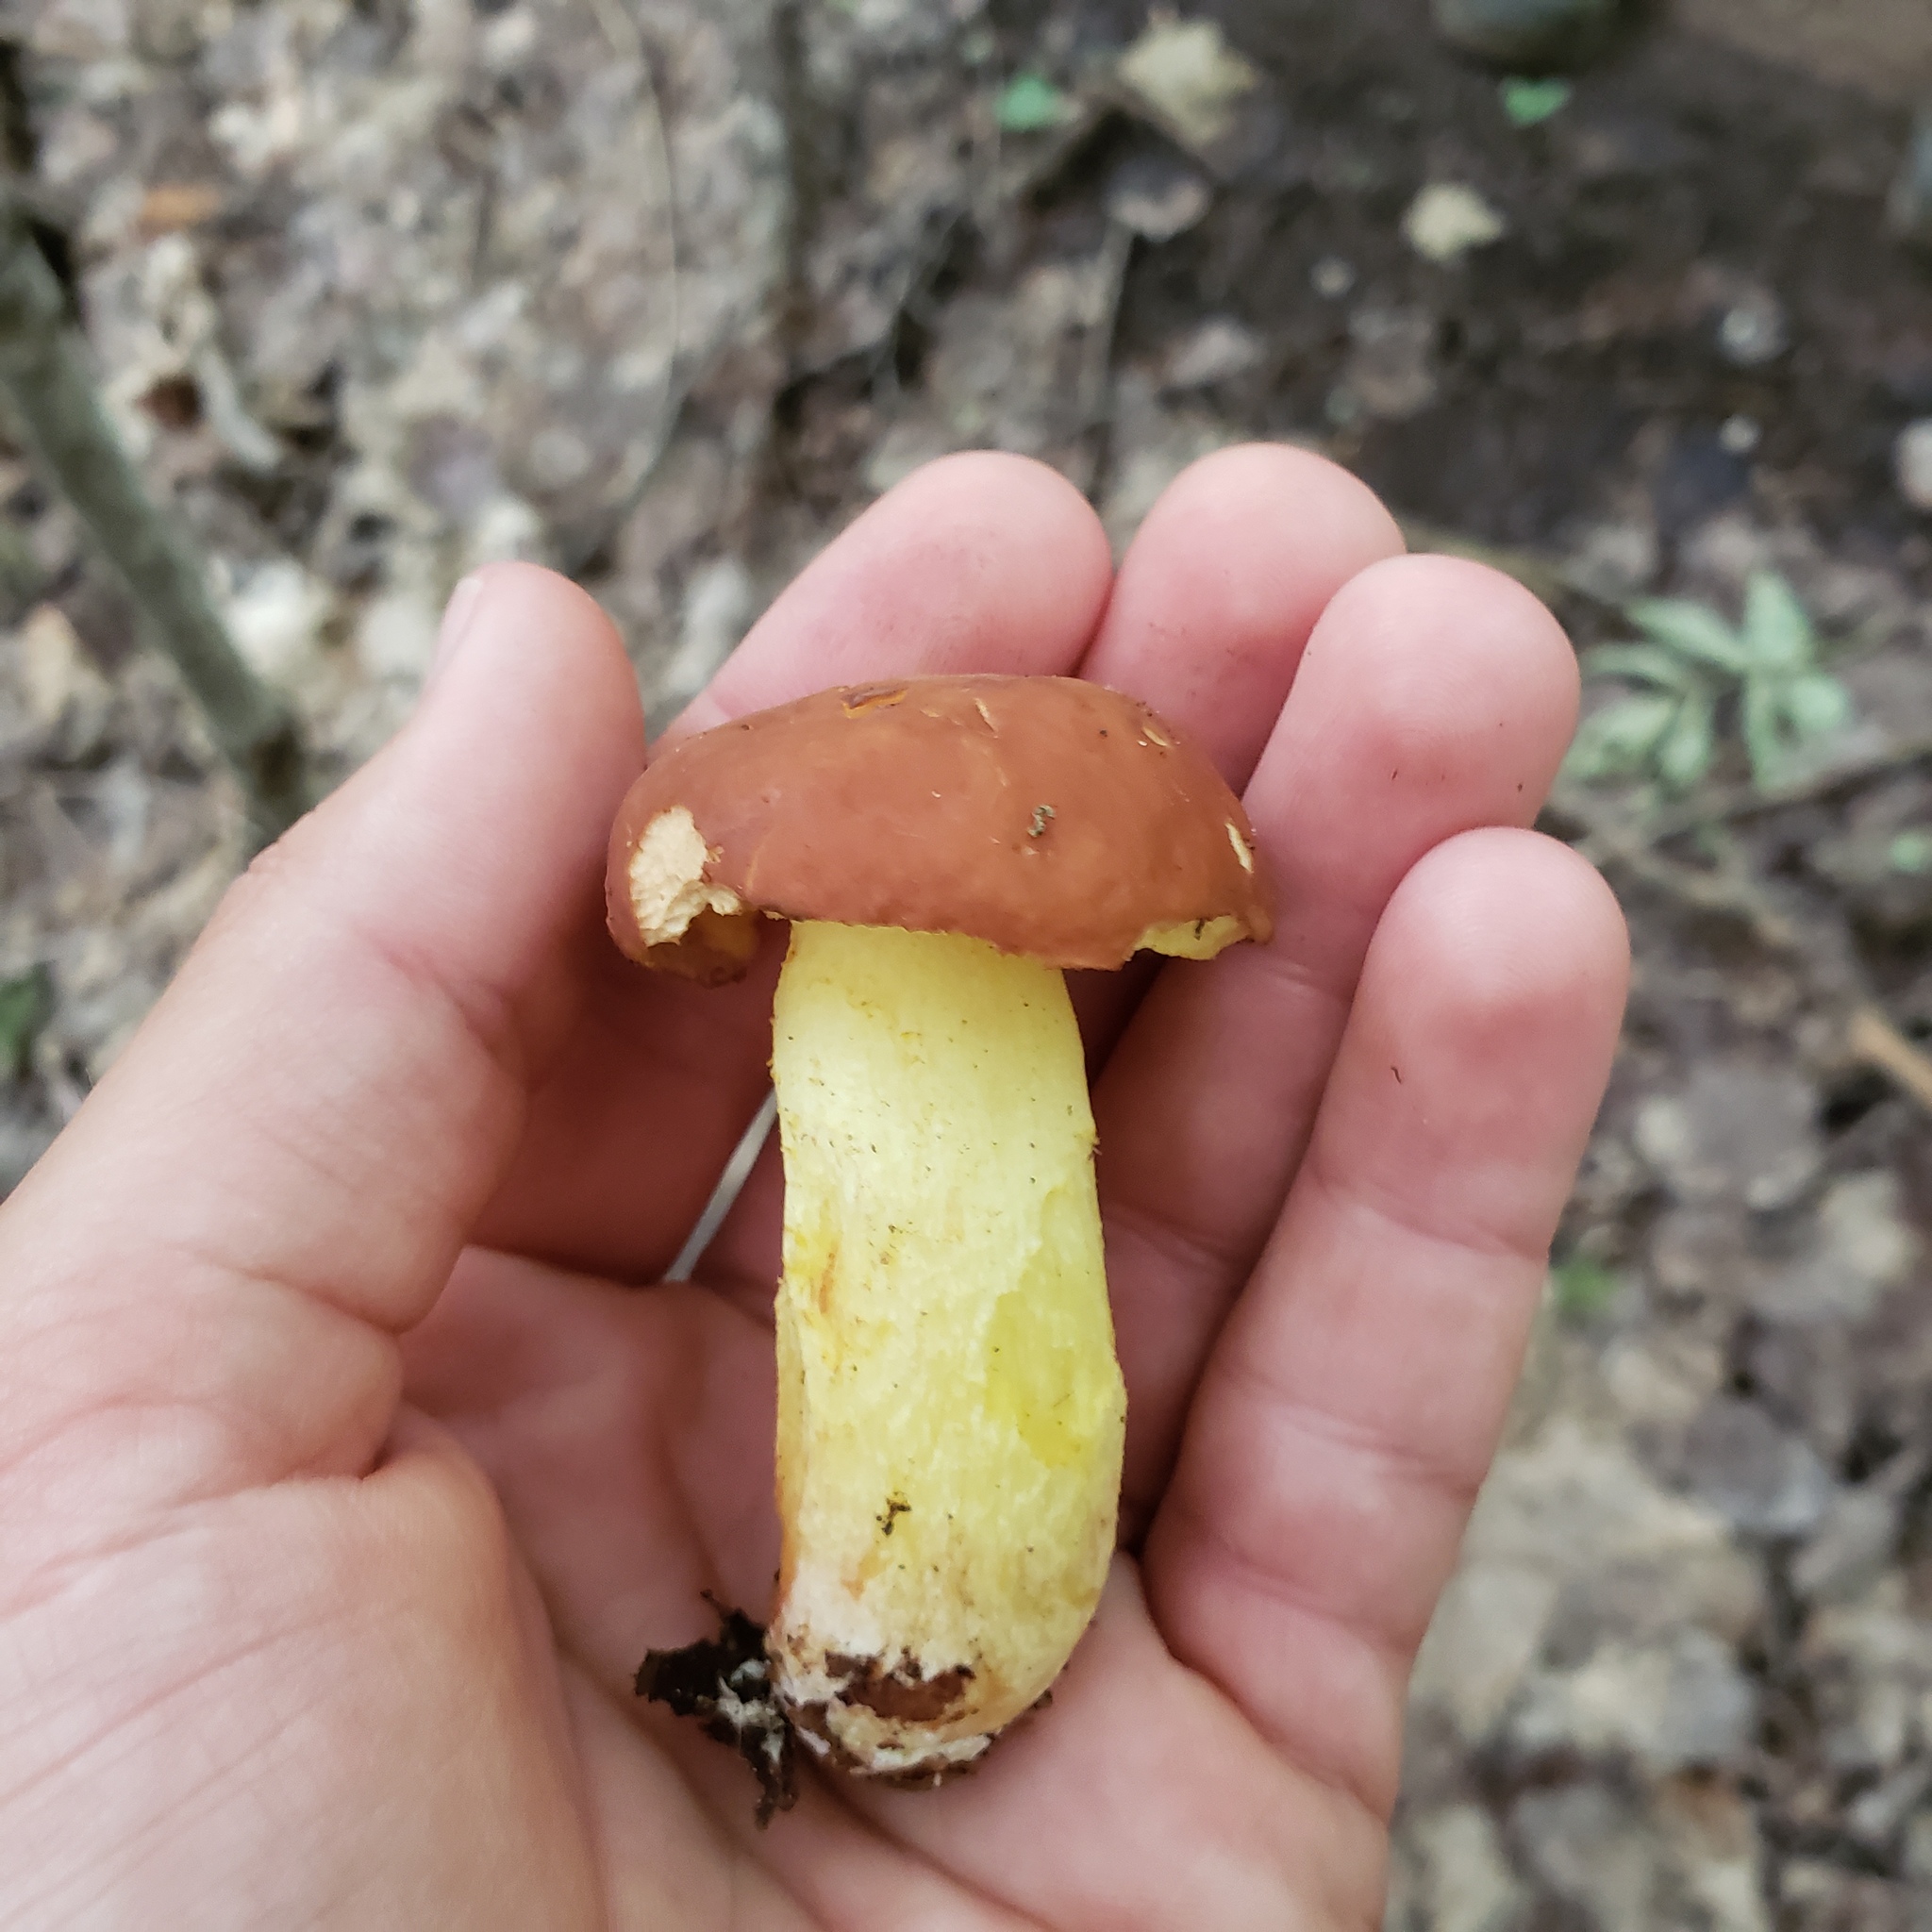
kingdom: Fungi
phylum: Basidiomycota
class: Agaricomycetes
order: Boletales
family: Boletaceae
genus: Hemileccinum
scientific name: Hemileccinum subglabripes
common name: Smoothish-stemmed bolete
